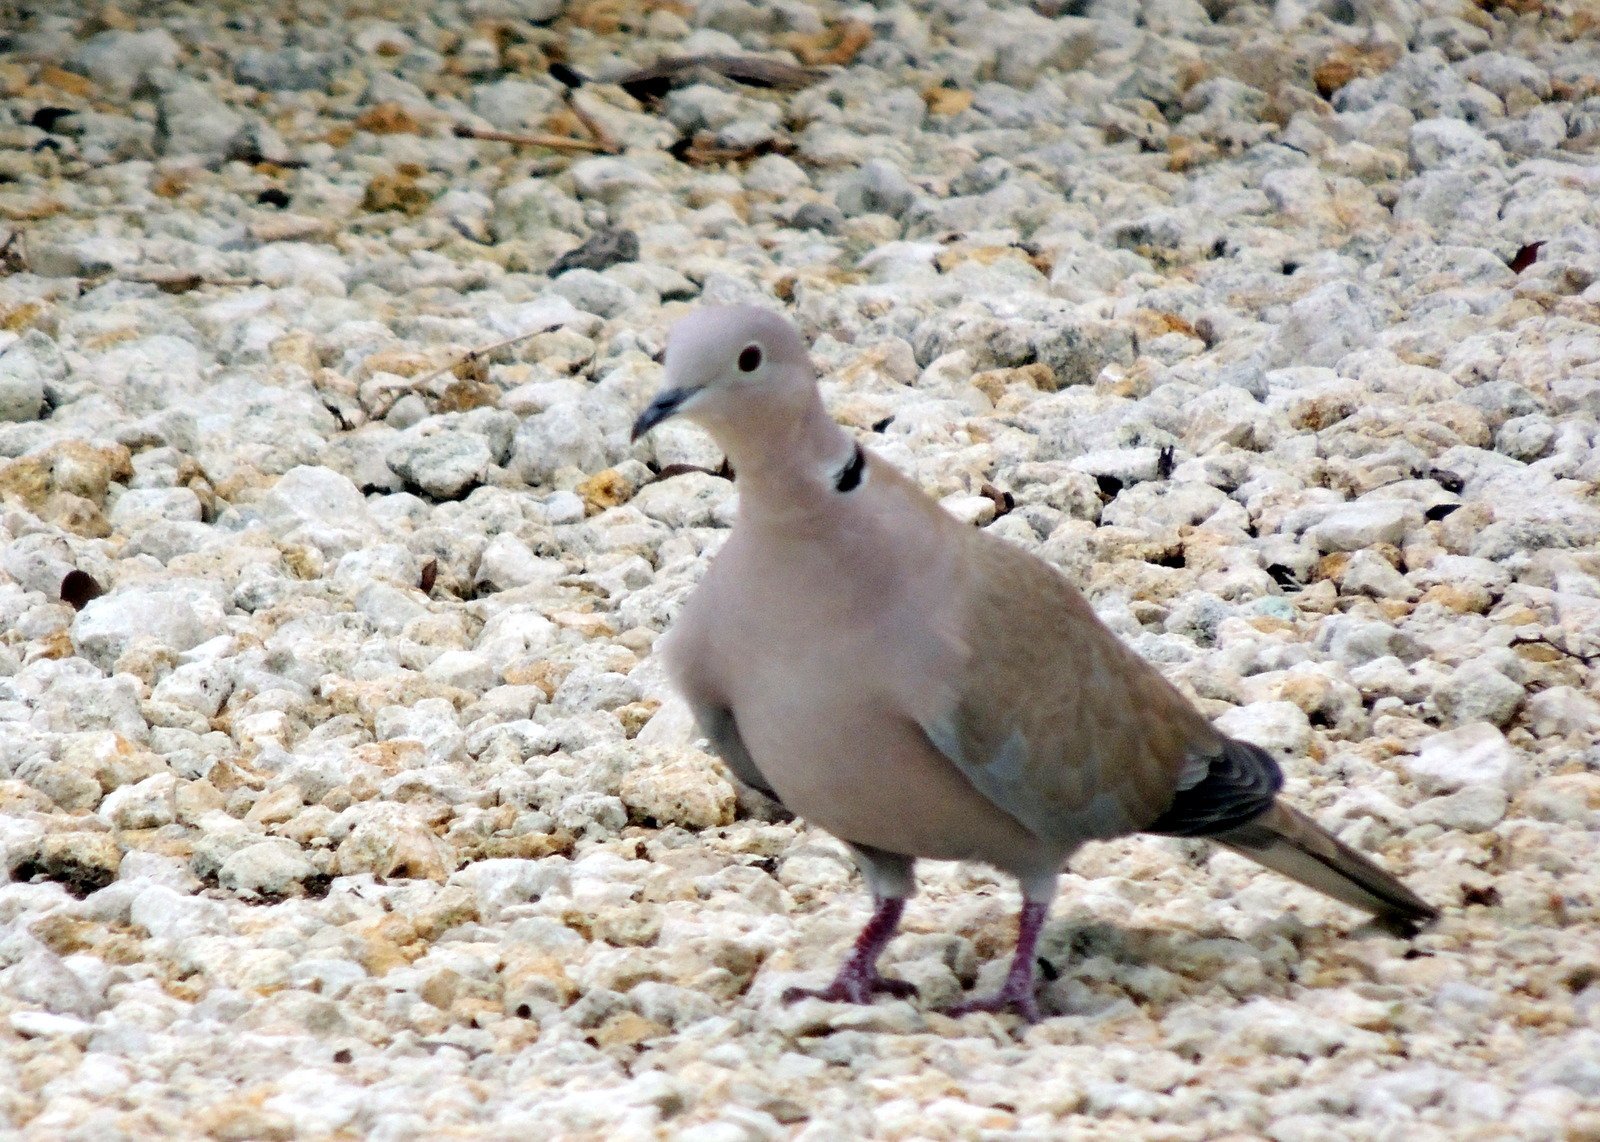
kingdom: Animalia
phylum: Chordata
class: Aves
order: Columbiformes
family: Columbidae
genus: Streptopelia
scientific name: Streptopelia decaocto
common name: Eurasian collared dove
